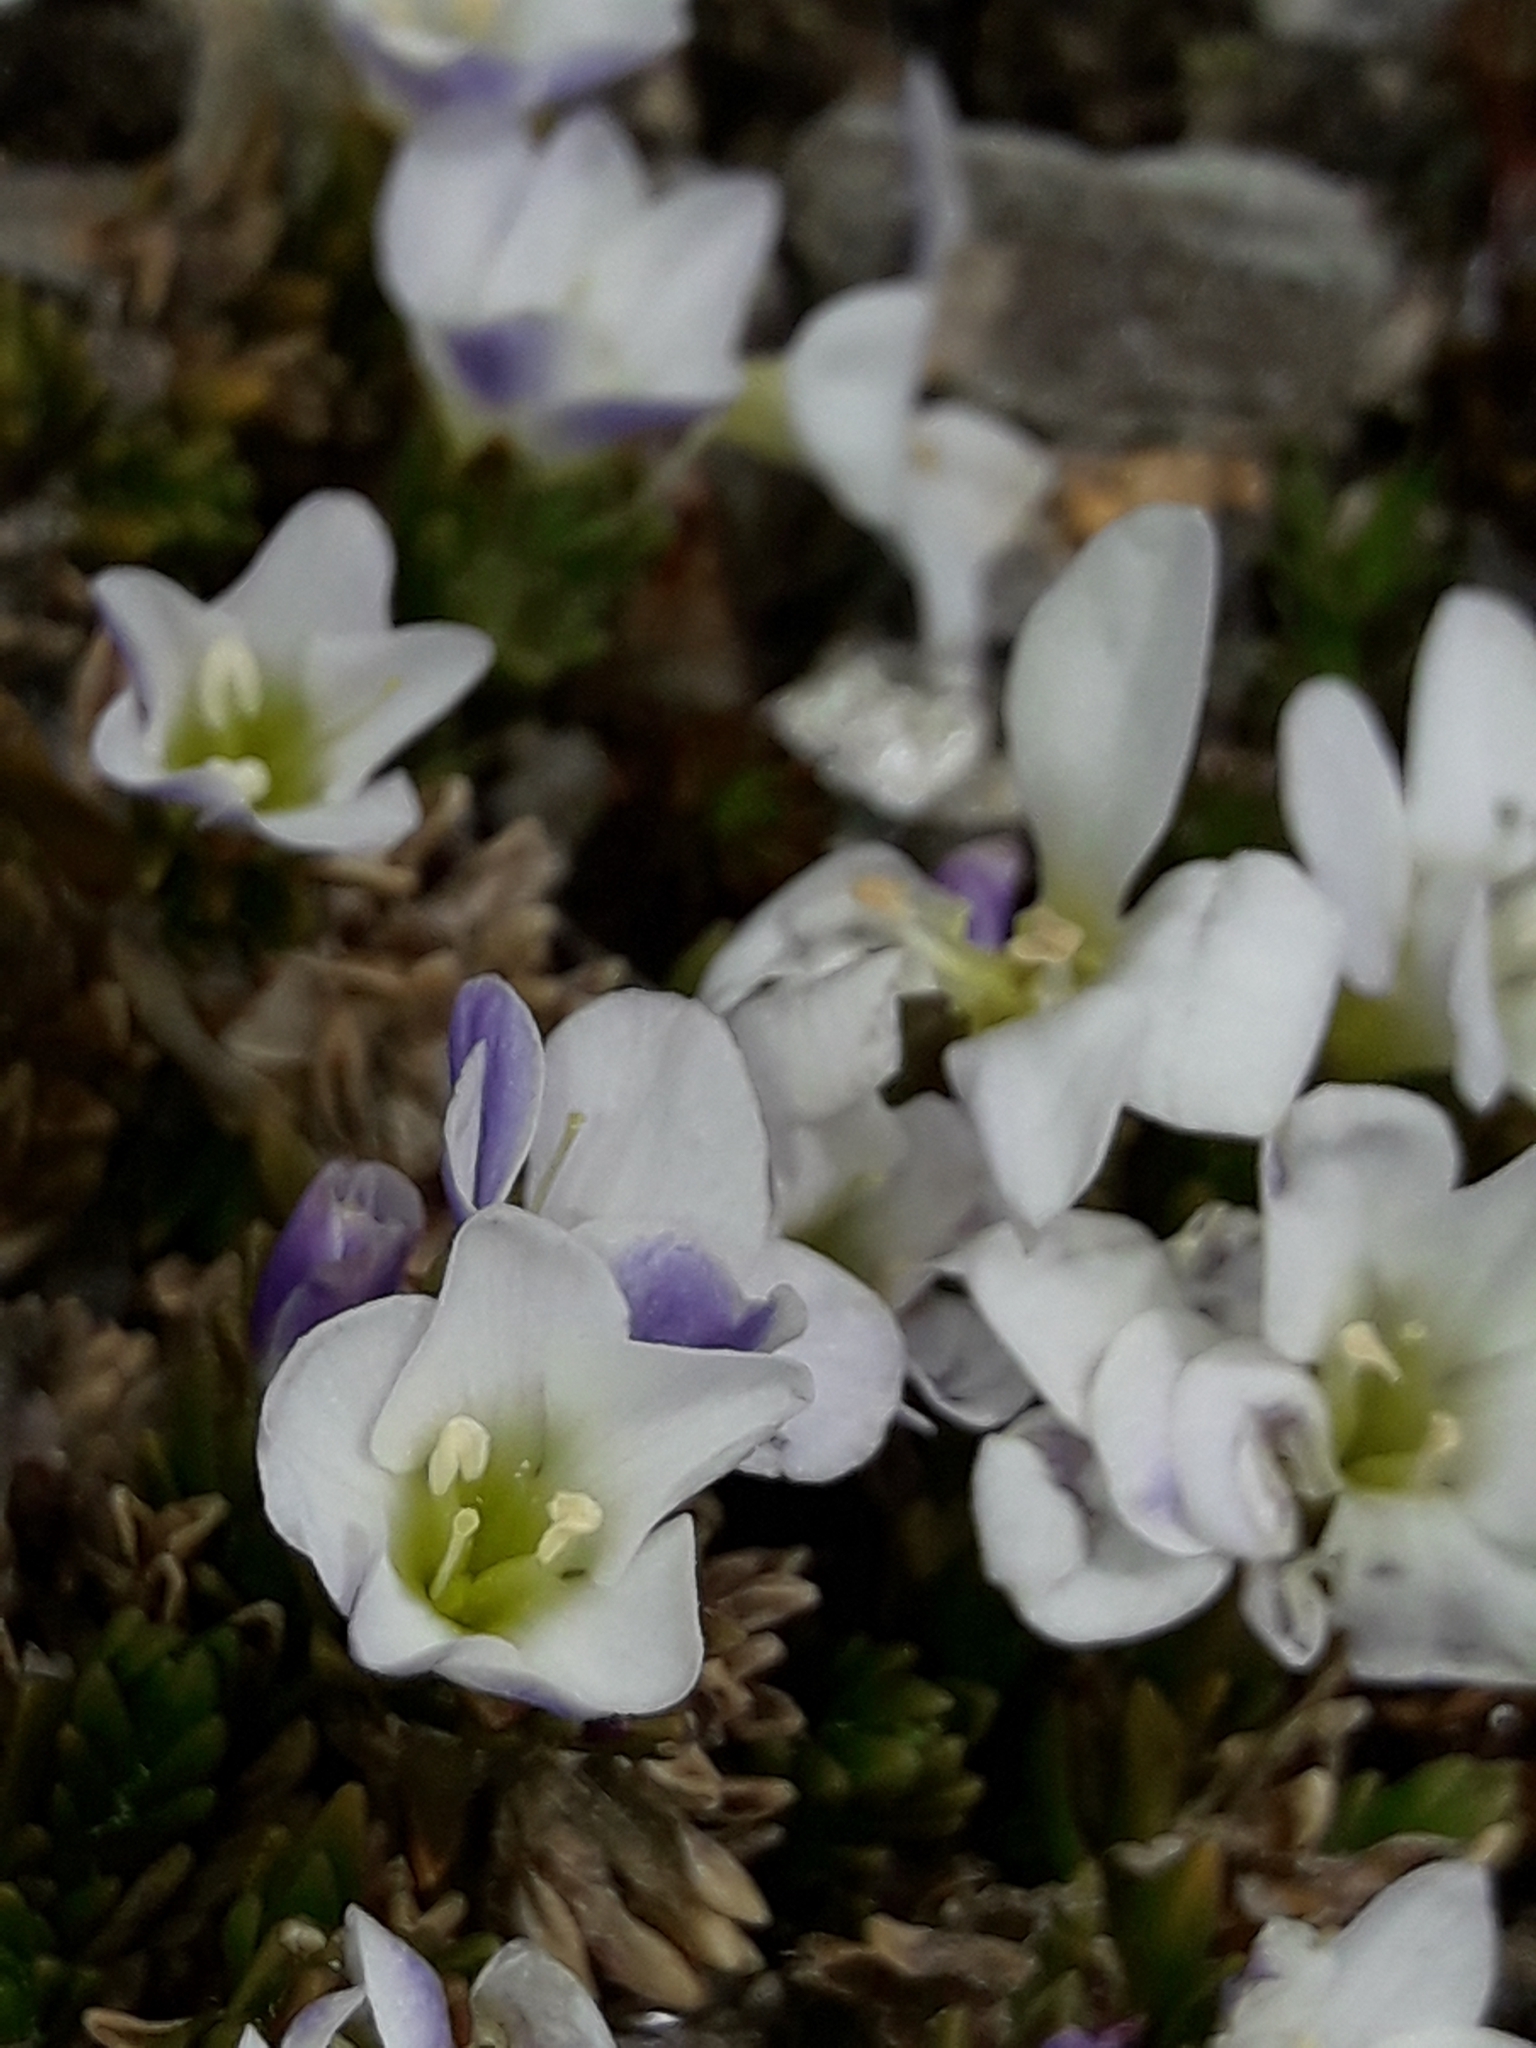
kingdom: Plantae
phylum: Tracheophyta
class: Magnoliopsida
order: Lamiales
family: Plantaginaceae
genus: Veronica
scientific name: Veronica densifolia
